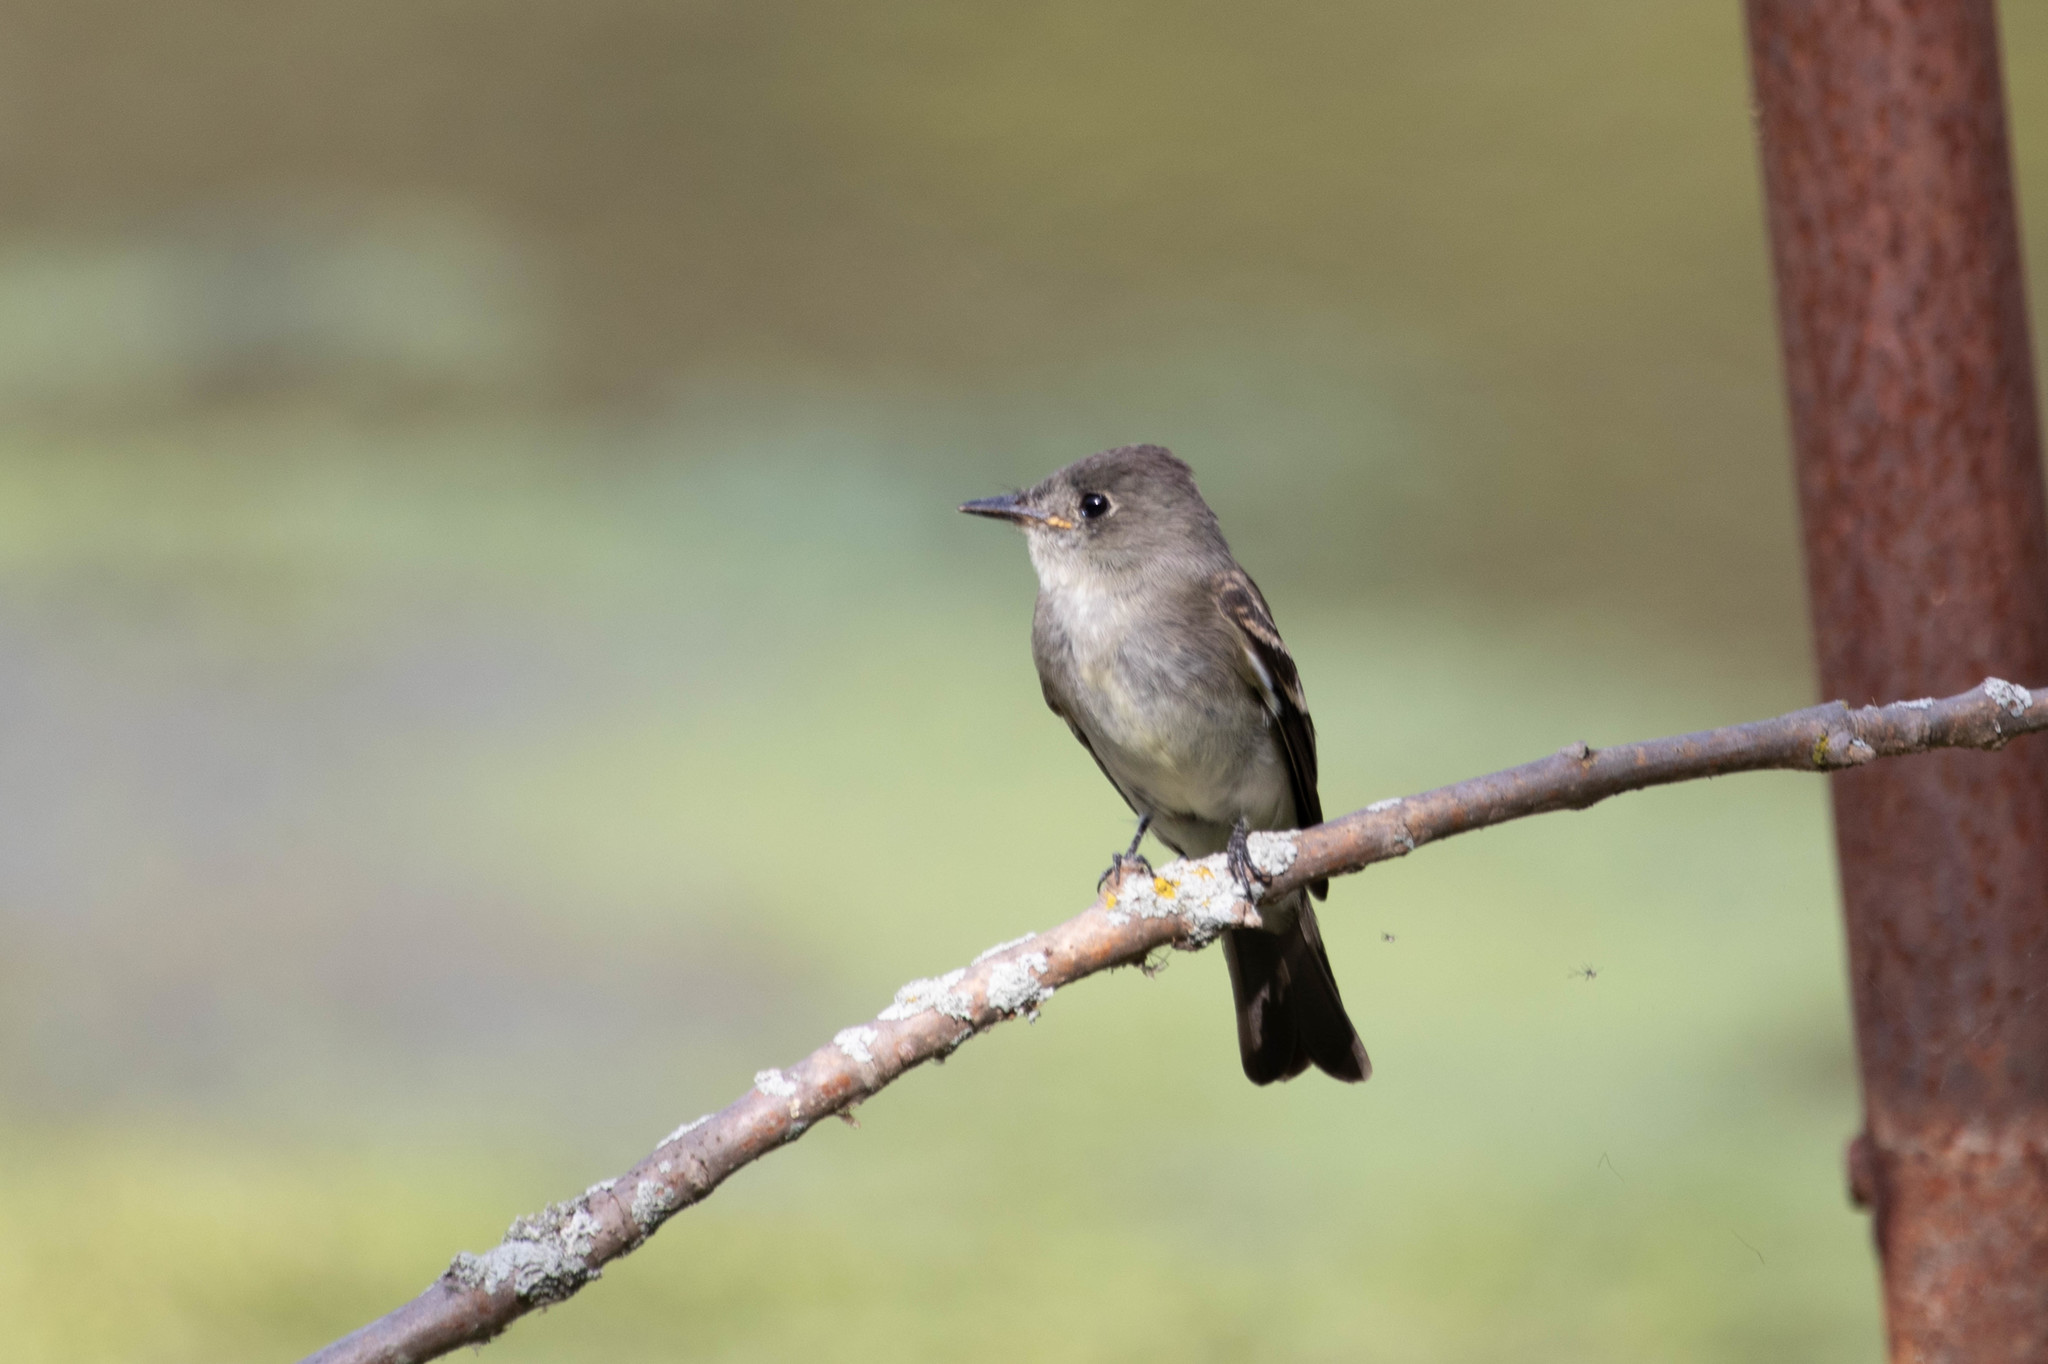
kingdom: Animalia
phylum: Chordata
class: Aves
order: Passeriformes
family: Tyrannidae
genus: Contopus
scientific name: Contopus virens
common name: Eastern wood-pewee
